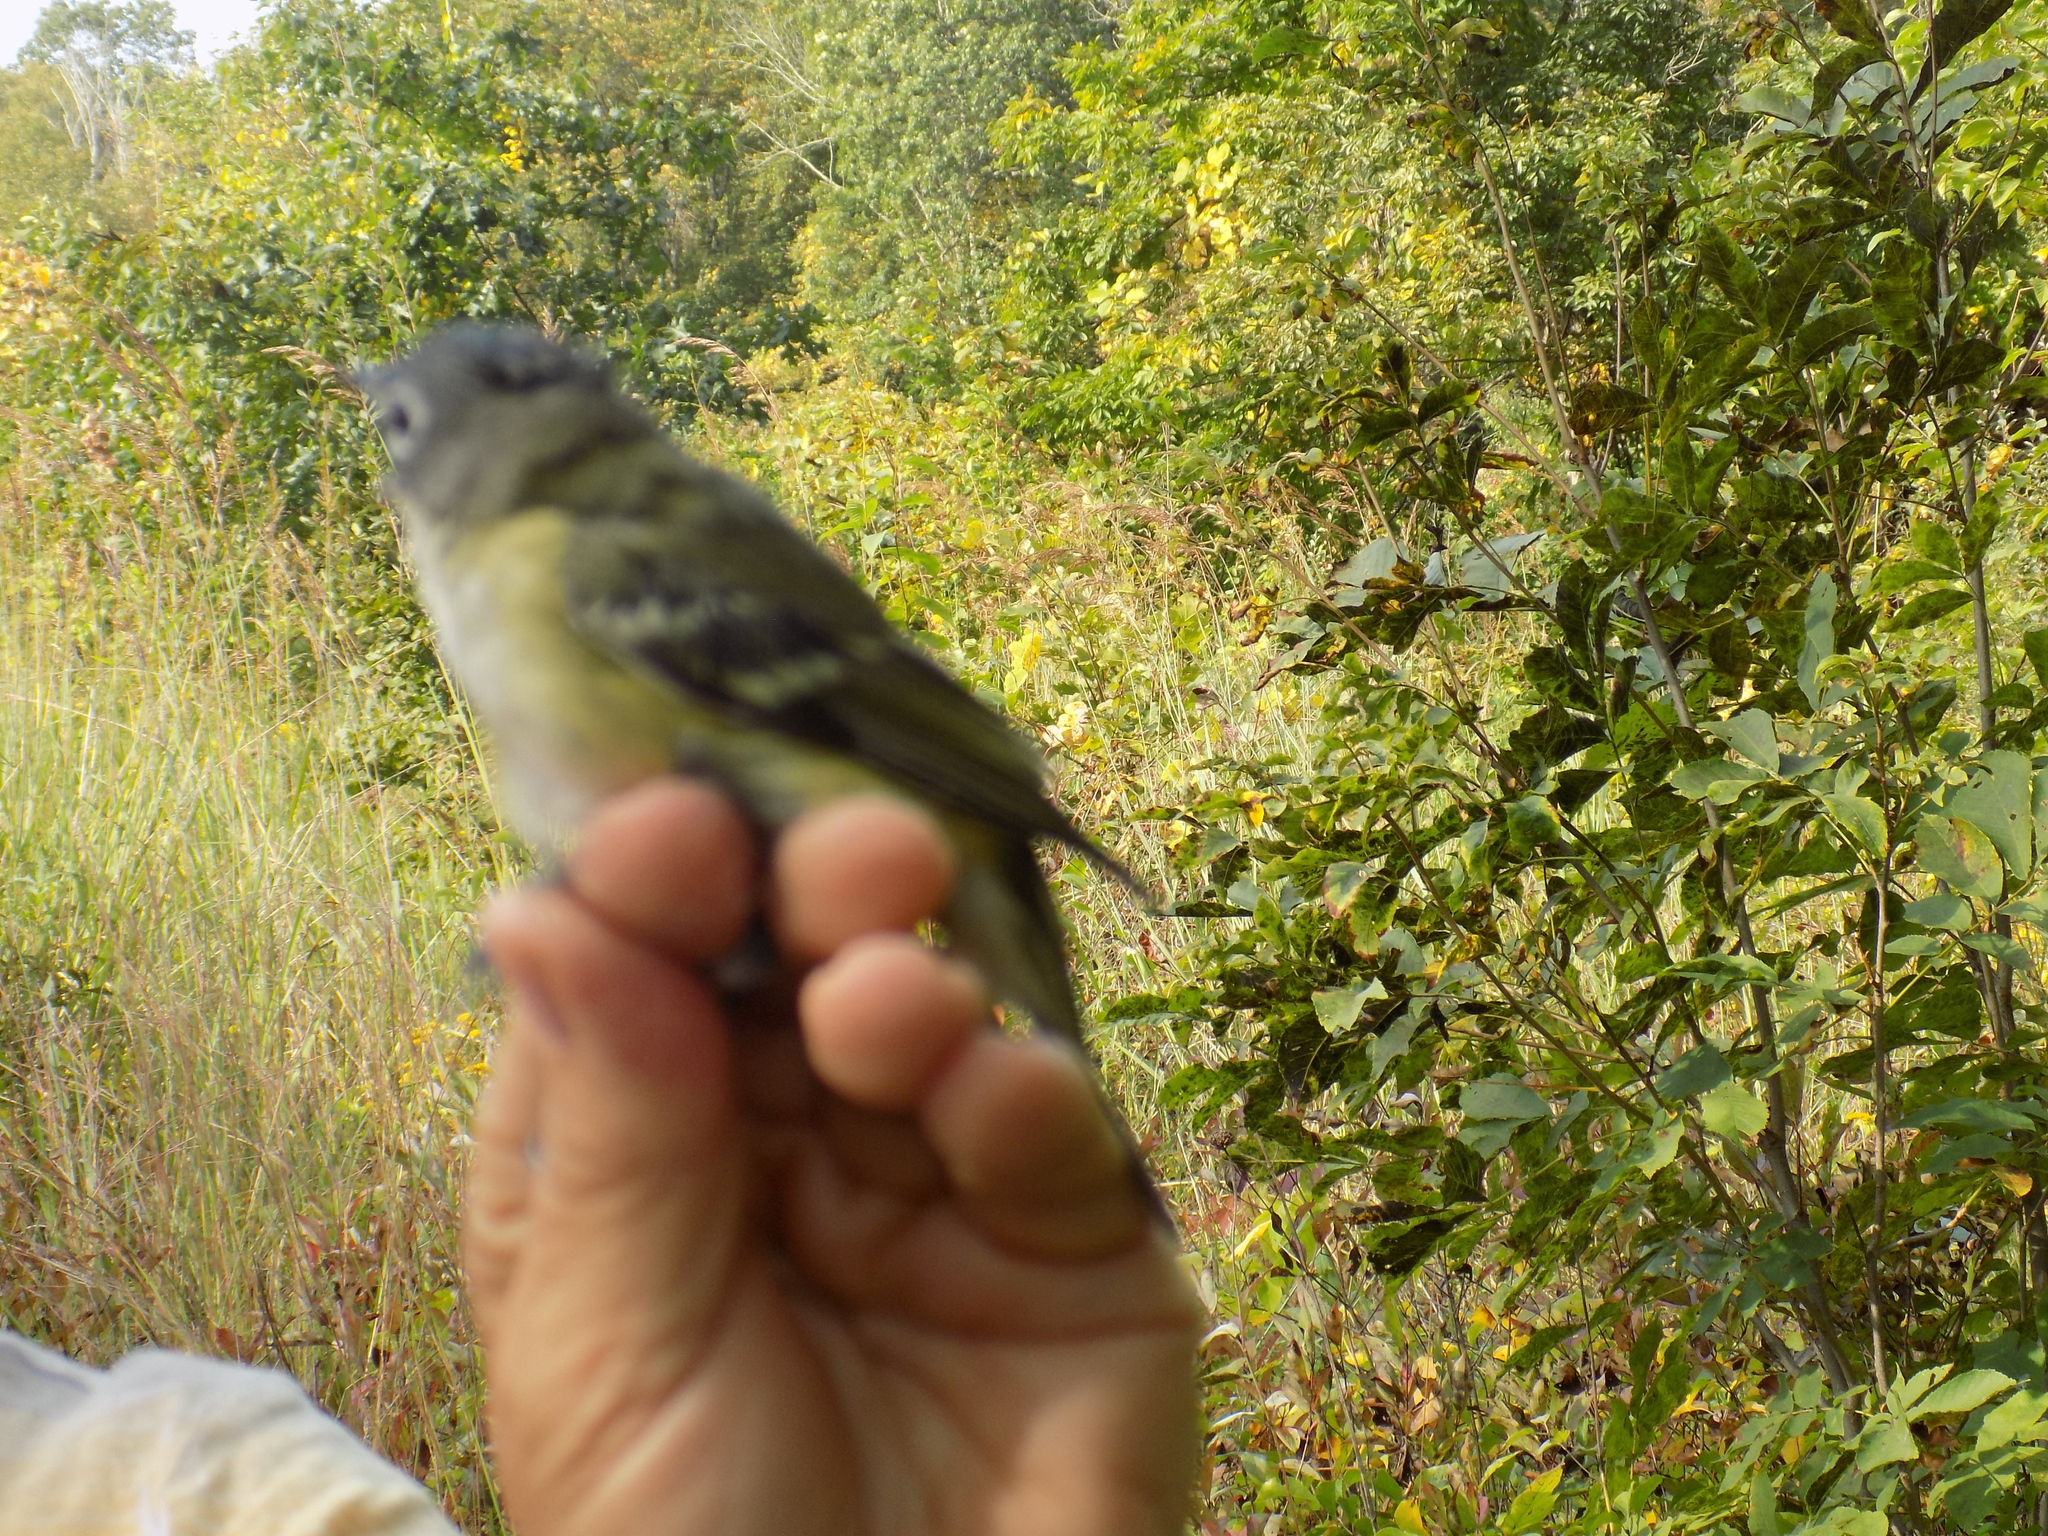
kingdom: Animalia
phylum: Chordata
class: Aves
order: Passeriformes
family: Vireonidae
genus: Vireo
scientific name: Vireo solitarius
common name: Blue-headed vireo
